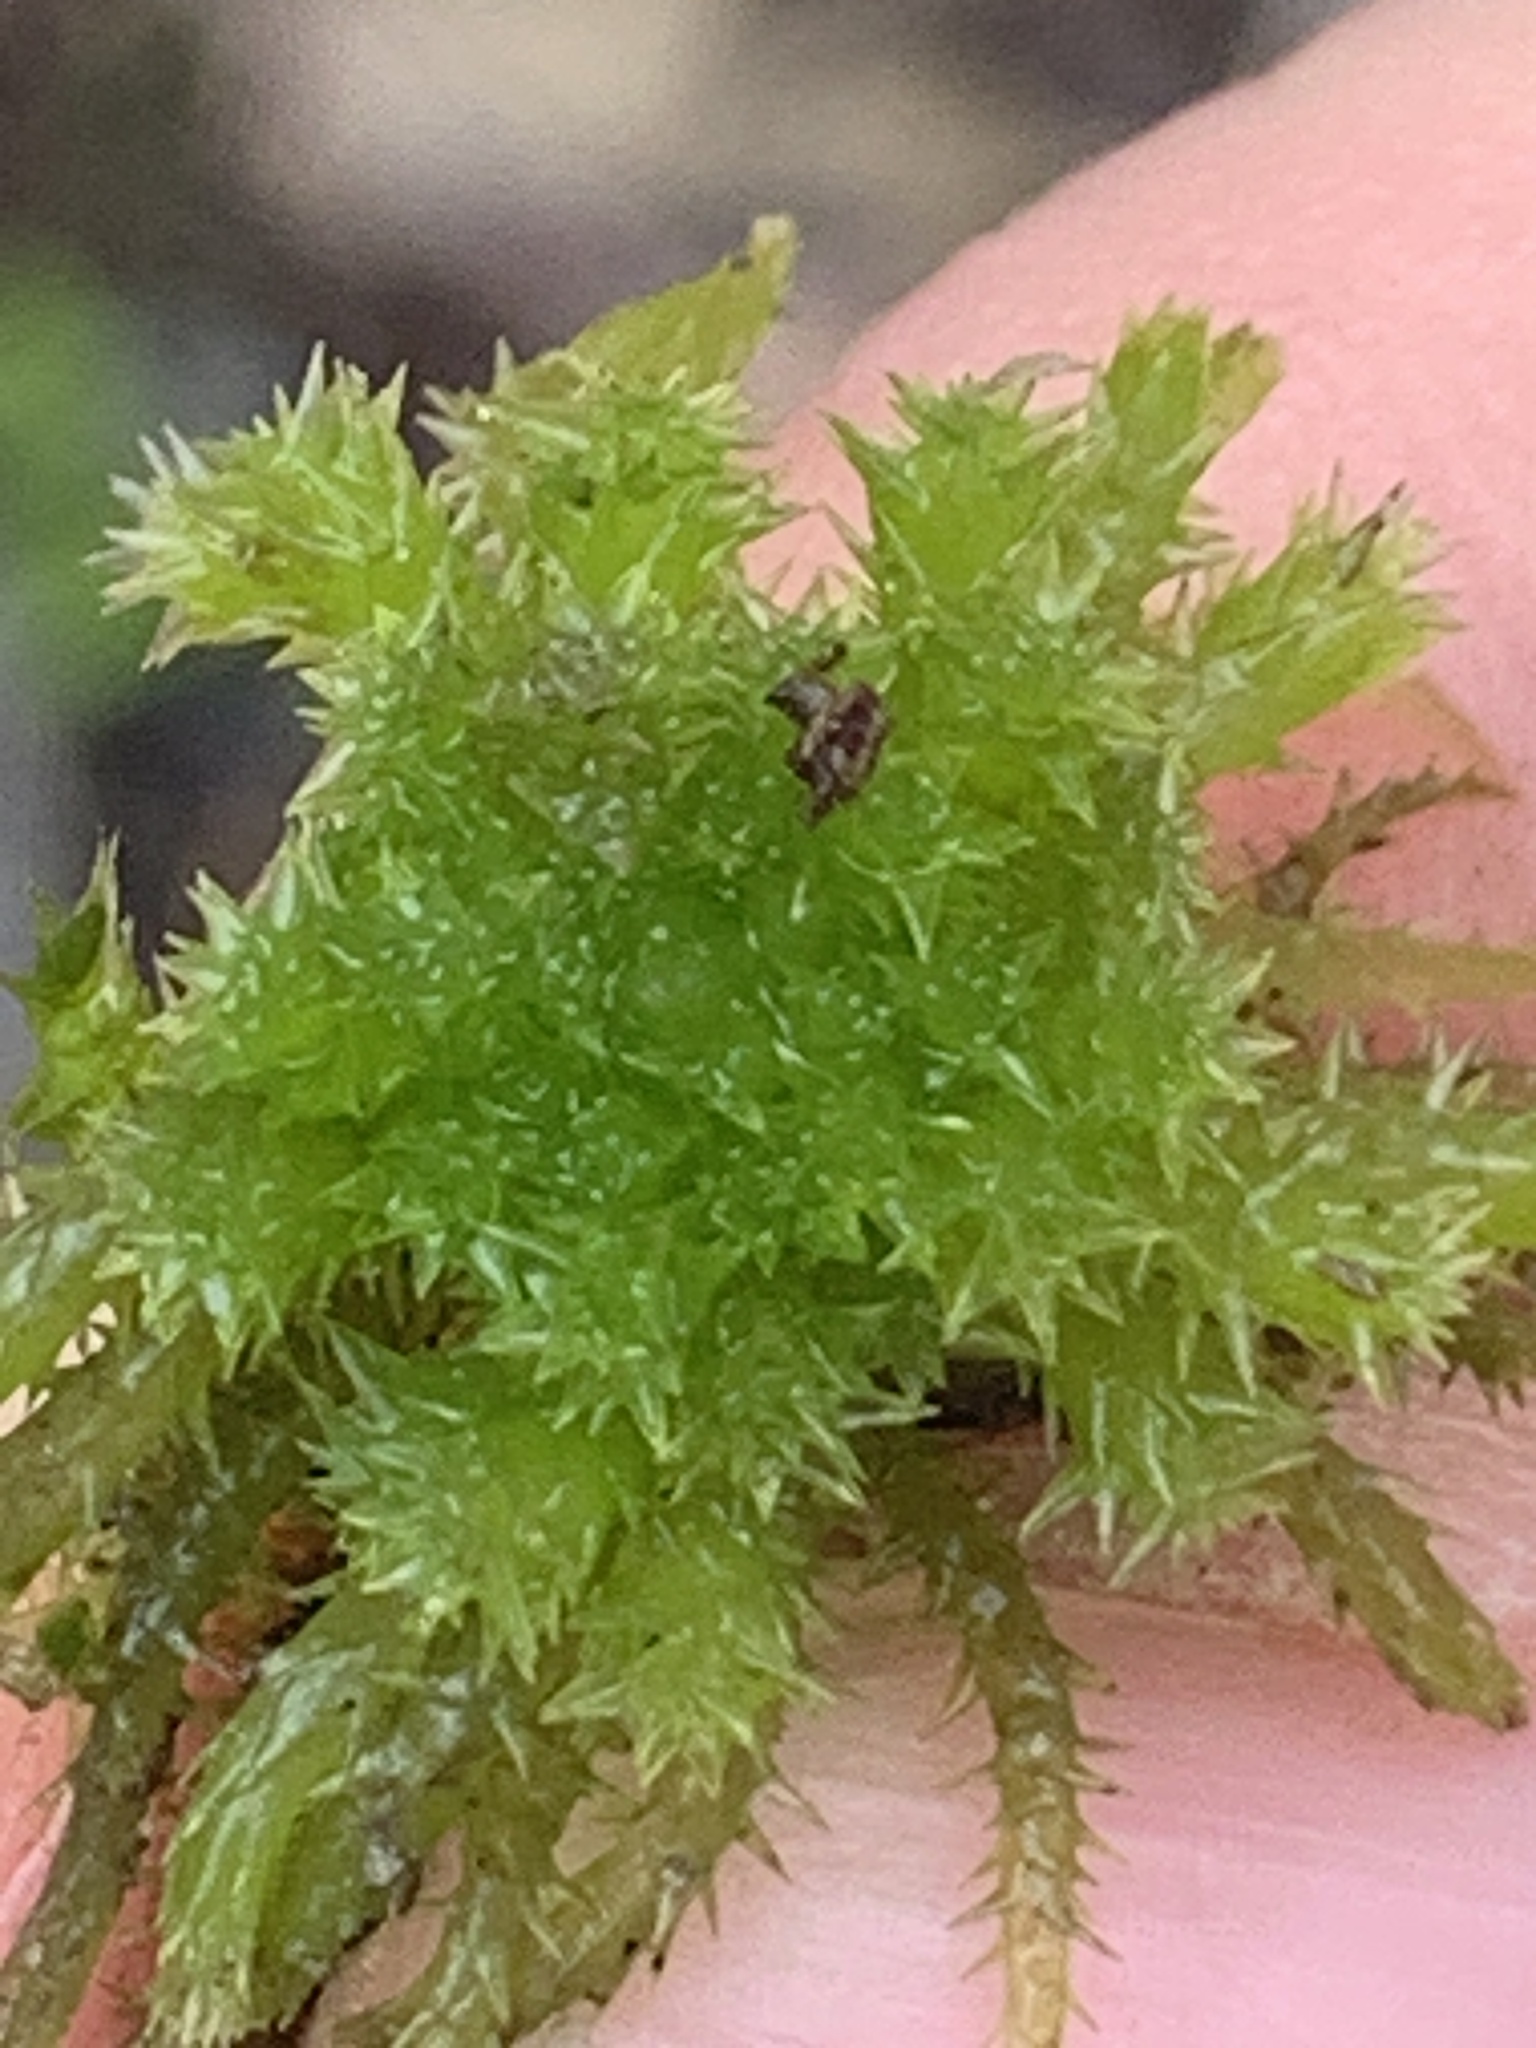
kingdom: Plantae
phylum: Bryophyta
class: Sphagnopsida
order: Sphagnales
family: Sphagnaceae
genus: Sphagnum
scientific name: Sphagnum squarrosum
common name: Shaggy peat moss
